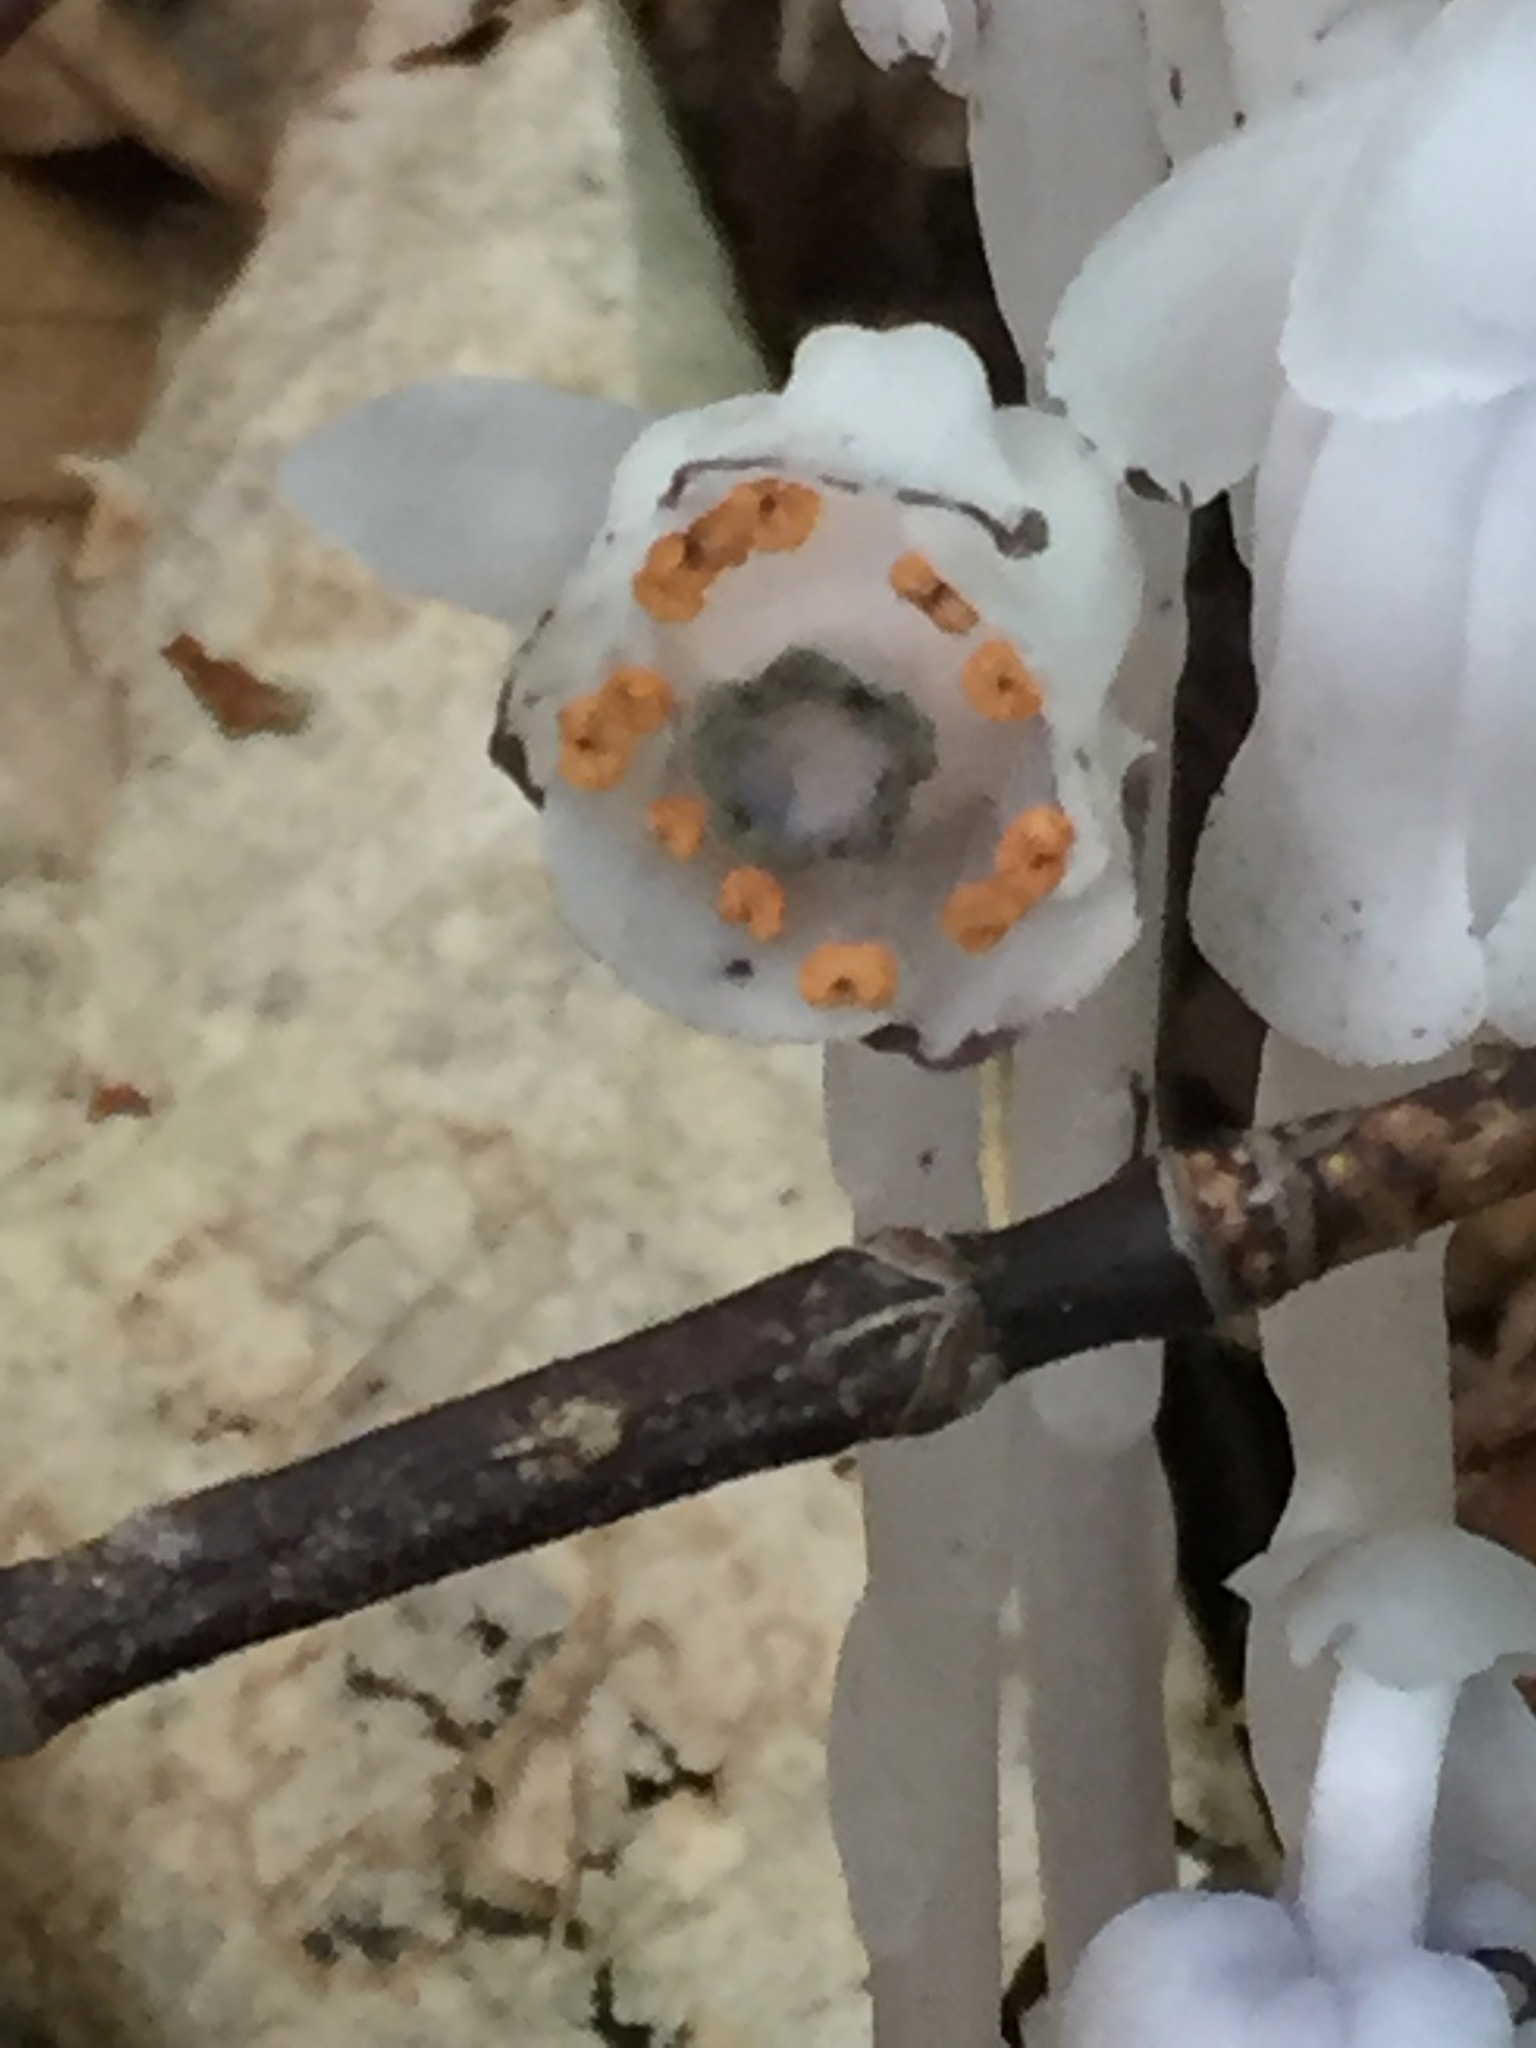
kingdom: Plantae
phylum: Tracheophyta
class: Magnoliopsida
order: Ericales
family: Ericaceae
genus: Monotropa
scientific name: Monotropa uniflora
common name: Convulsion root
